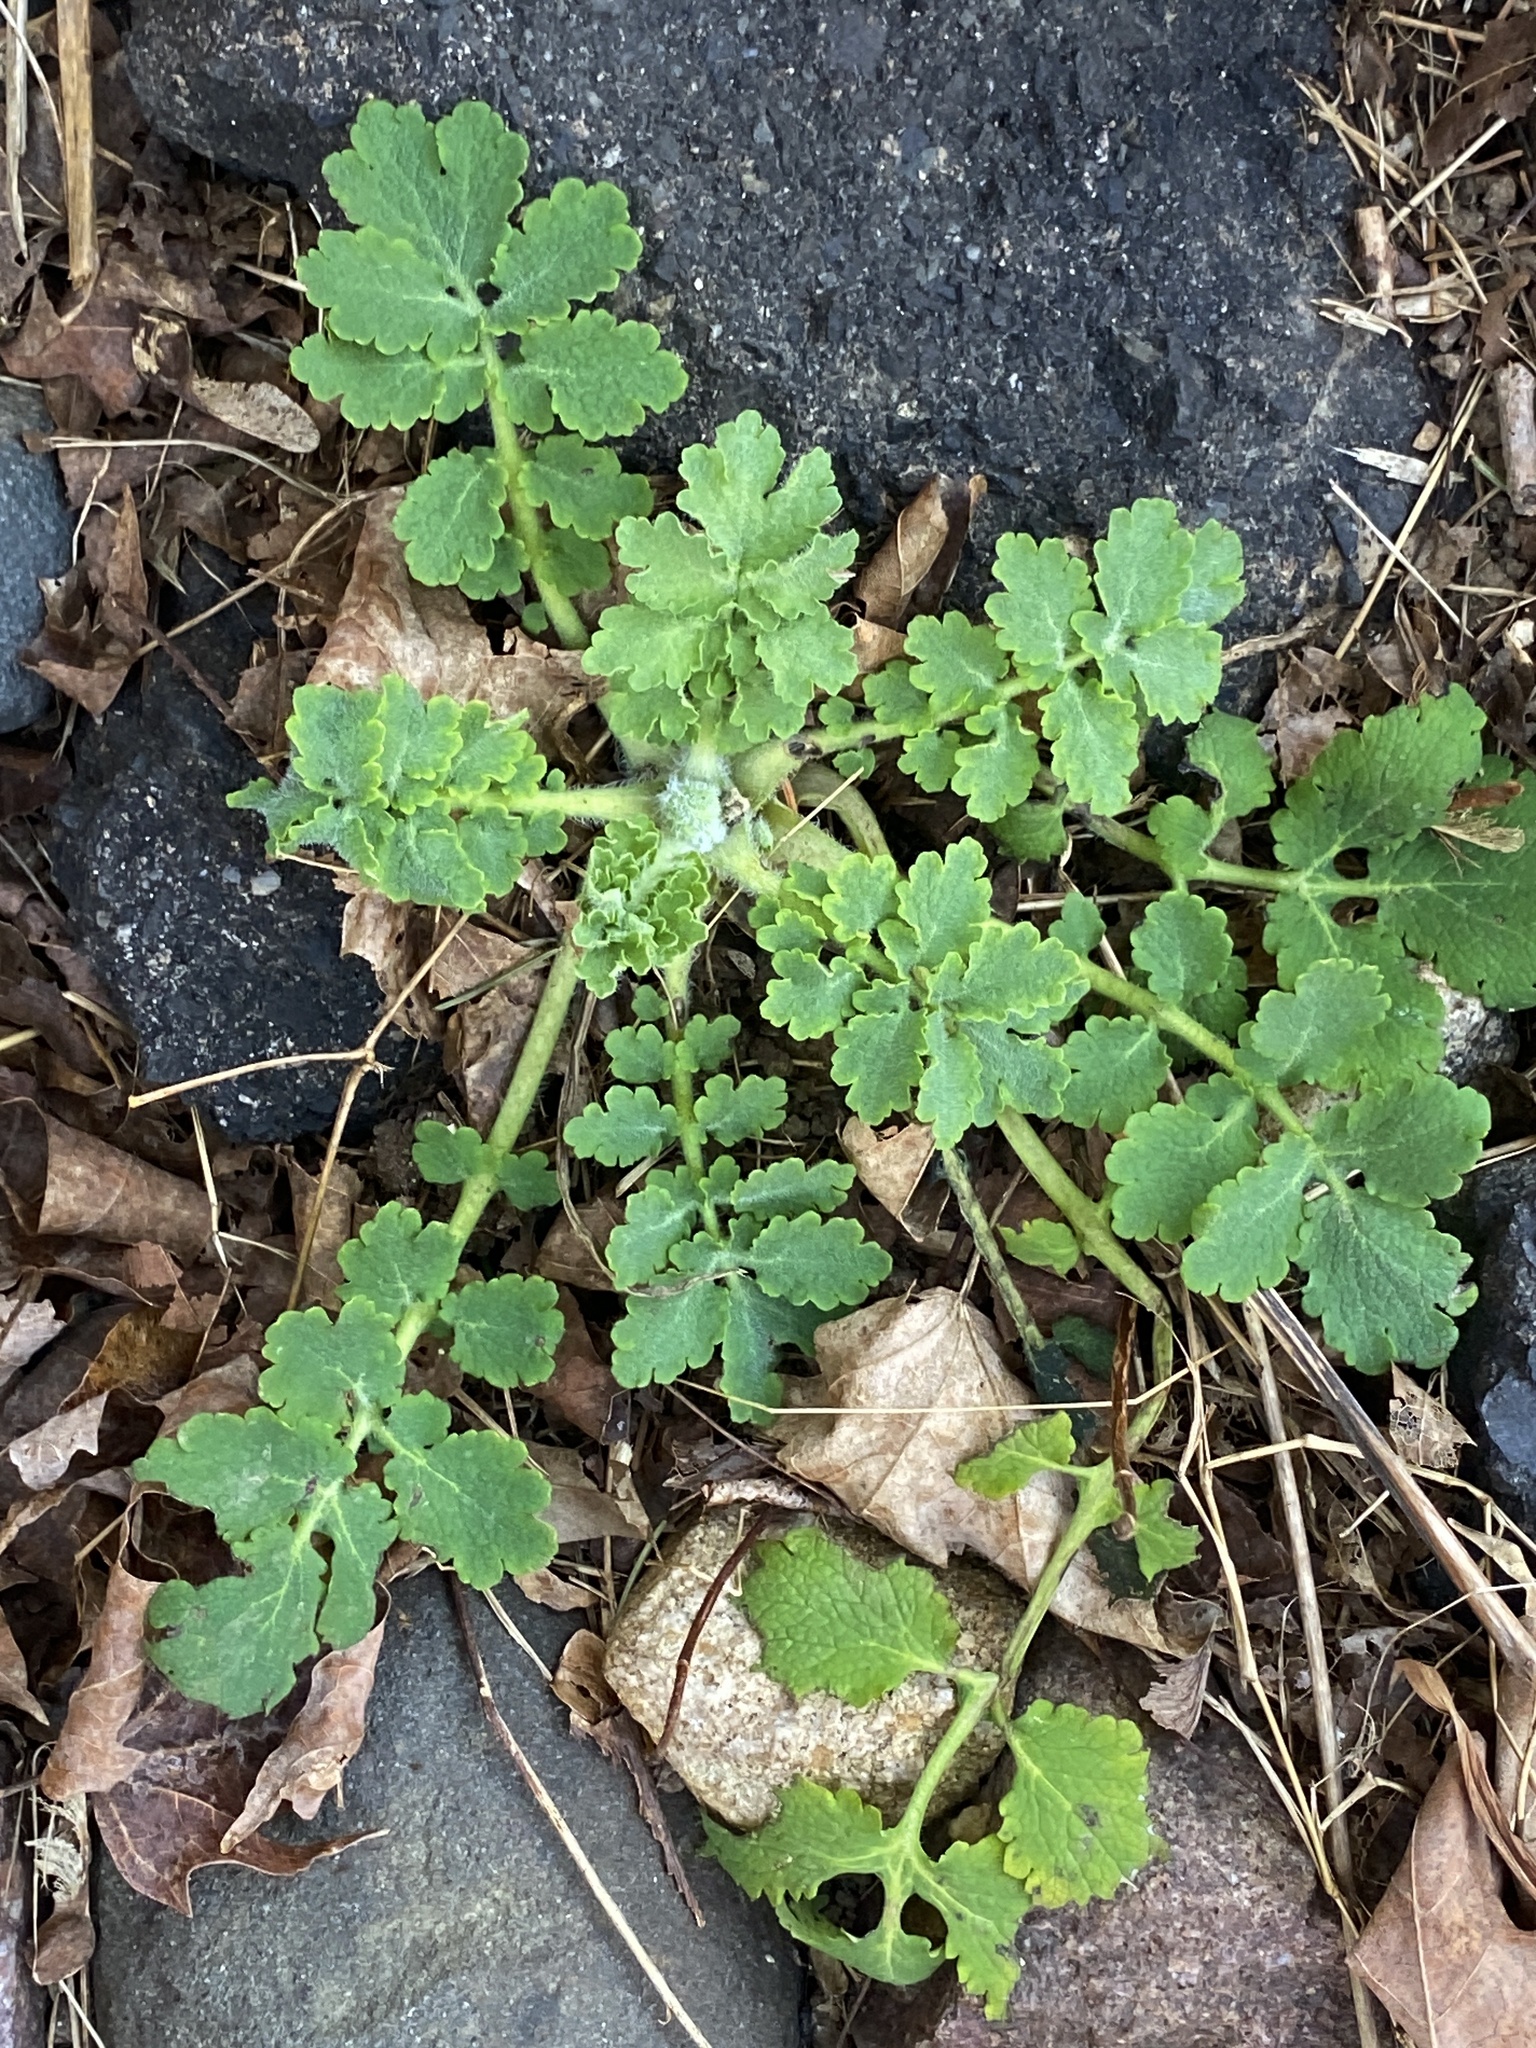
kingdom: Plantae
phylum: Tracheophyta
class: Magnoliopsida
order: Ranunculales
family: Papaveraceae
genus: Chelidonium
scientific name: Chelidonium majus
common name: Greater celandine
